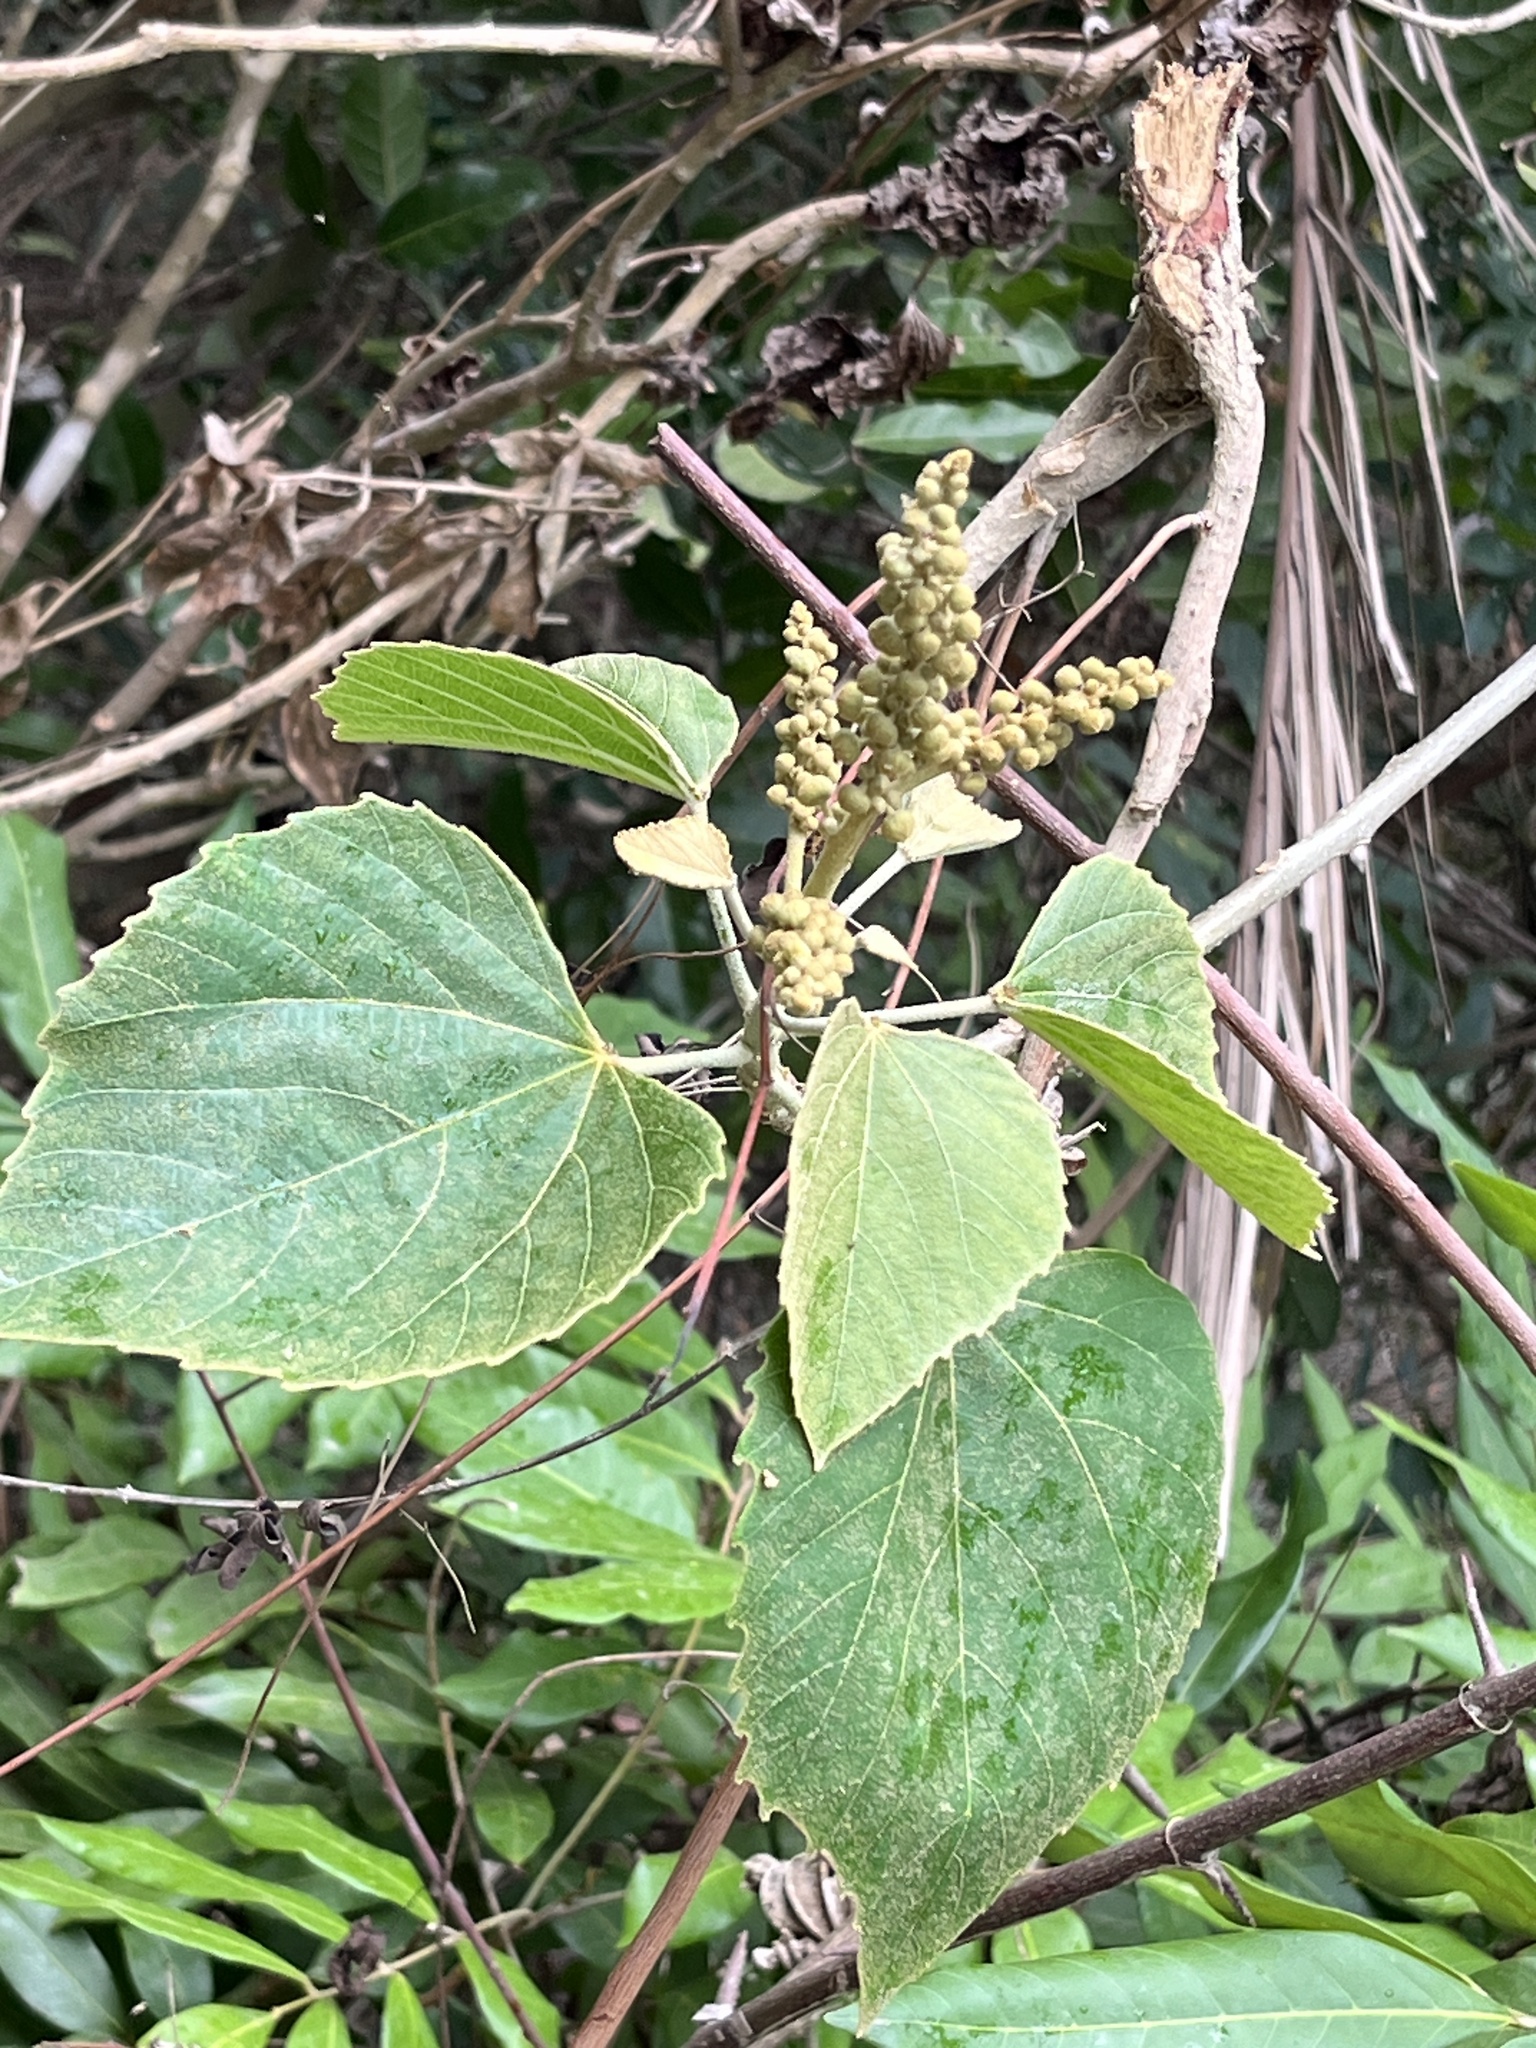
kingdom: Plantae
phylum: Tracheophyta
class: Magnoliopsida
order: Malpighiales
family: Euphorbiaceae
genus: Melanolepis
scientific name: Melanolepis multiglandulosa
